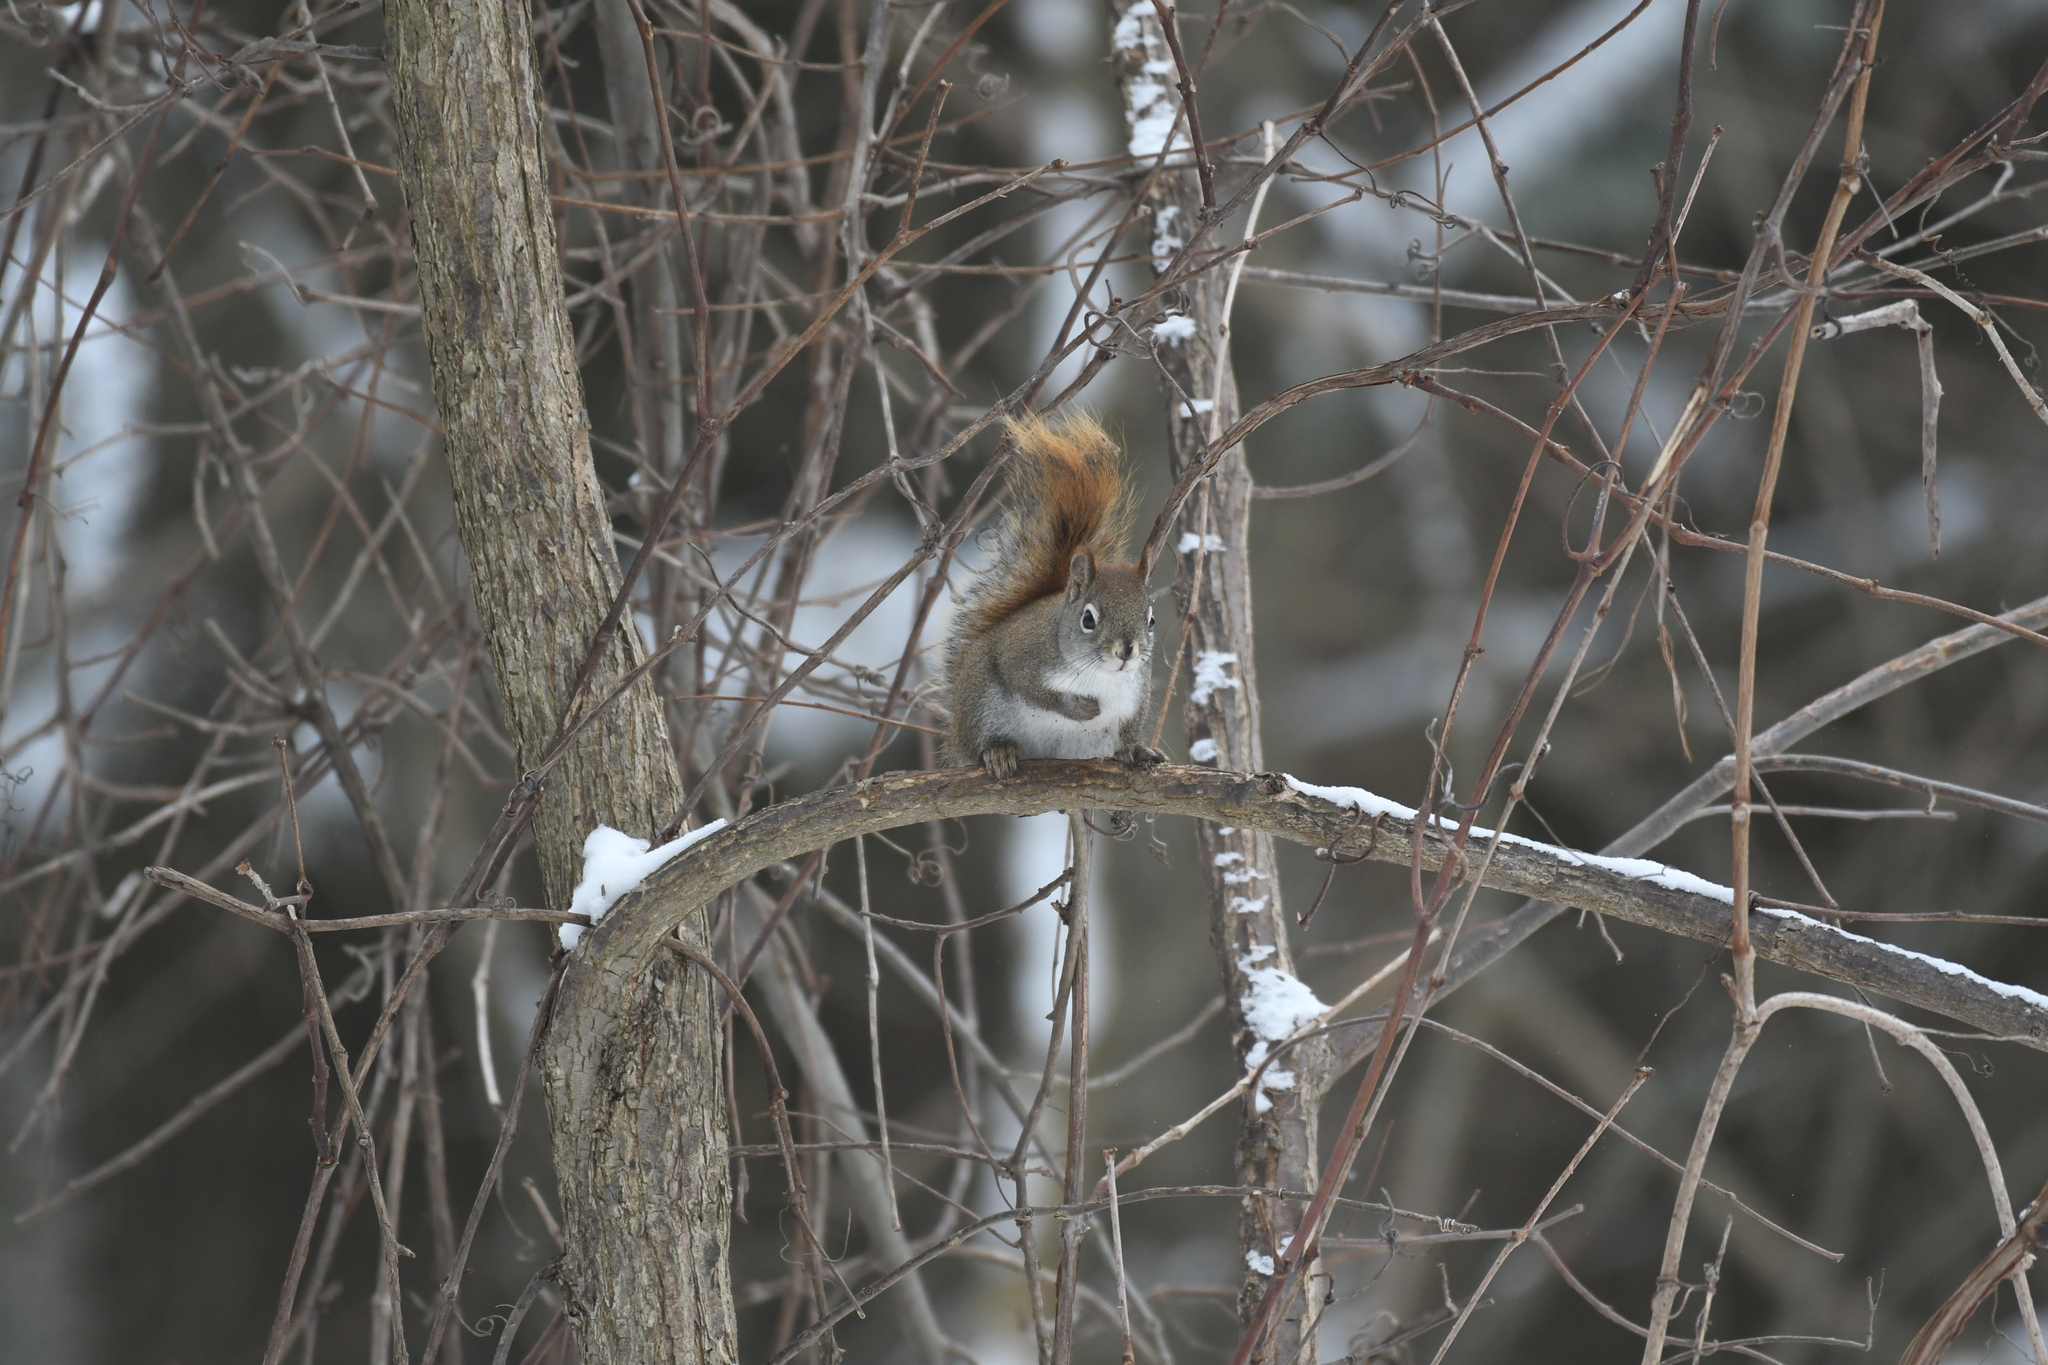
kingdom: Animalia
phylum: Chordata
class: Mammalia
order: Rodentia
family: Sciuridae
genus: Tamiasciurus
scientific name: Tamiasciurus hudsonicus
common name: Red squirrel
